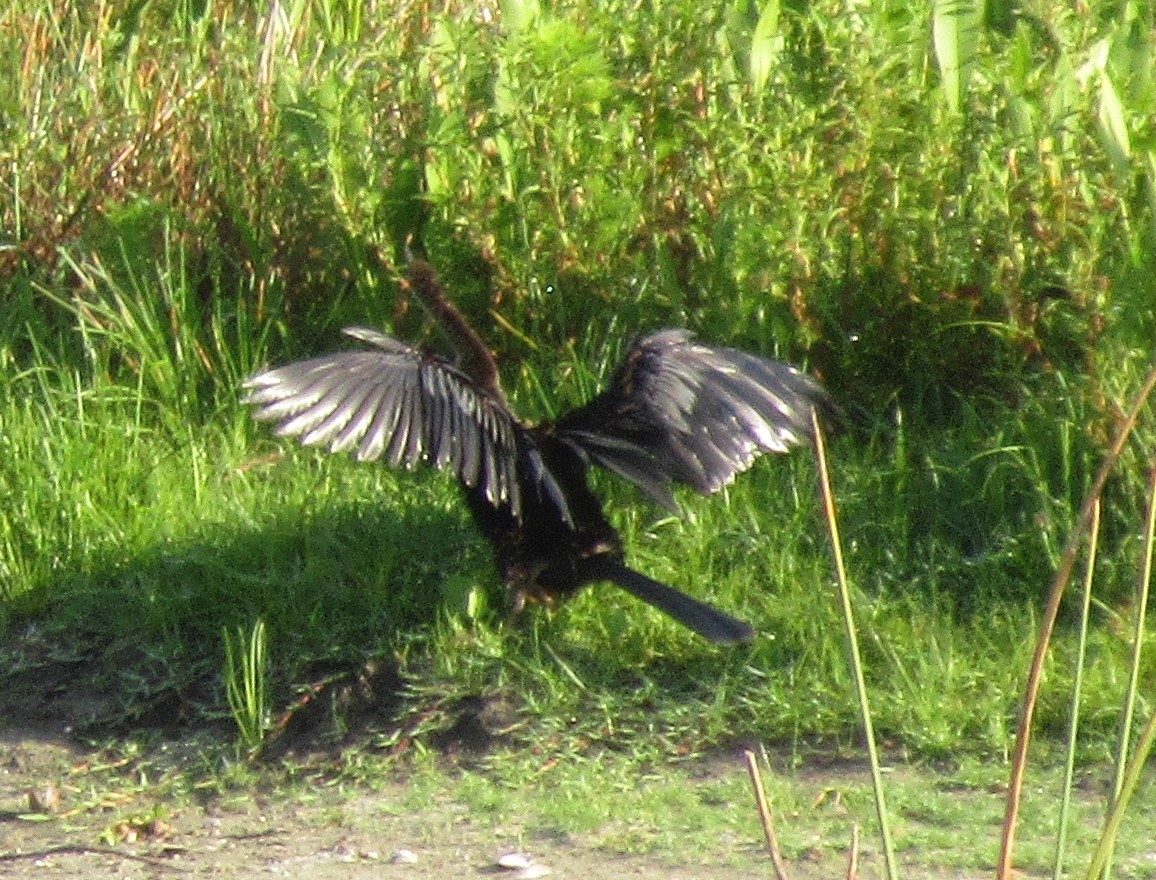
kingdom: Animalia
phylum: Chordata
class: Aves
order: Suliformes
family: Anhingidae
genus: Anhinga
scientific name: Anhinga anhinga
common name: Anhinga
